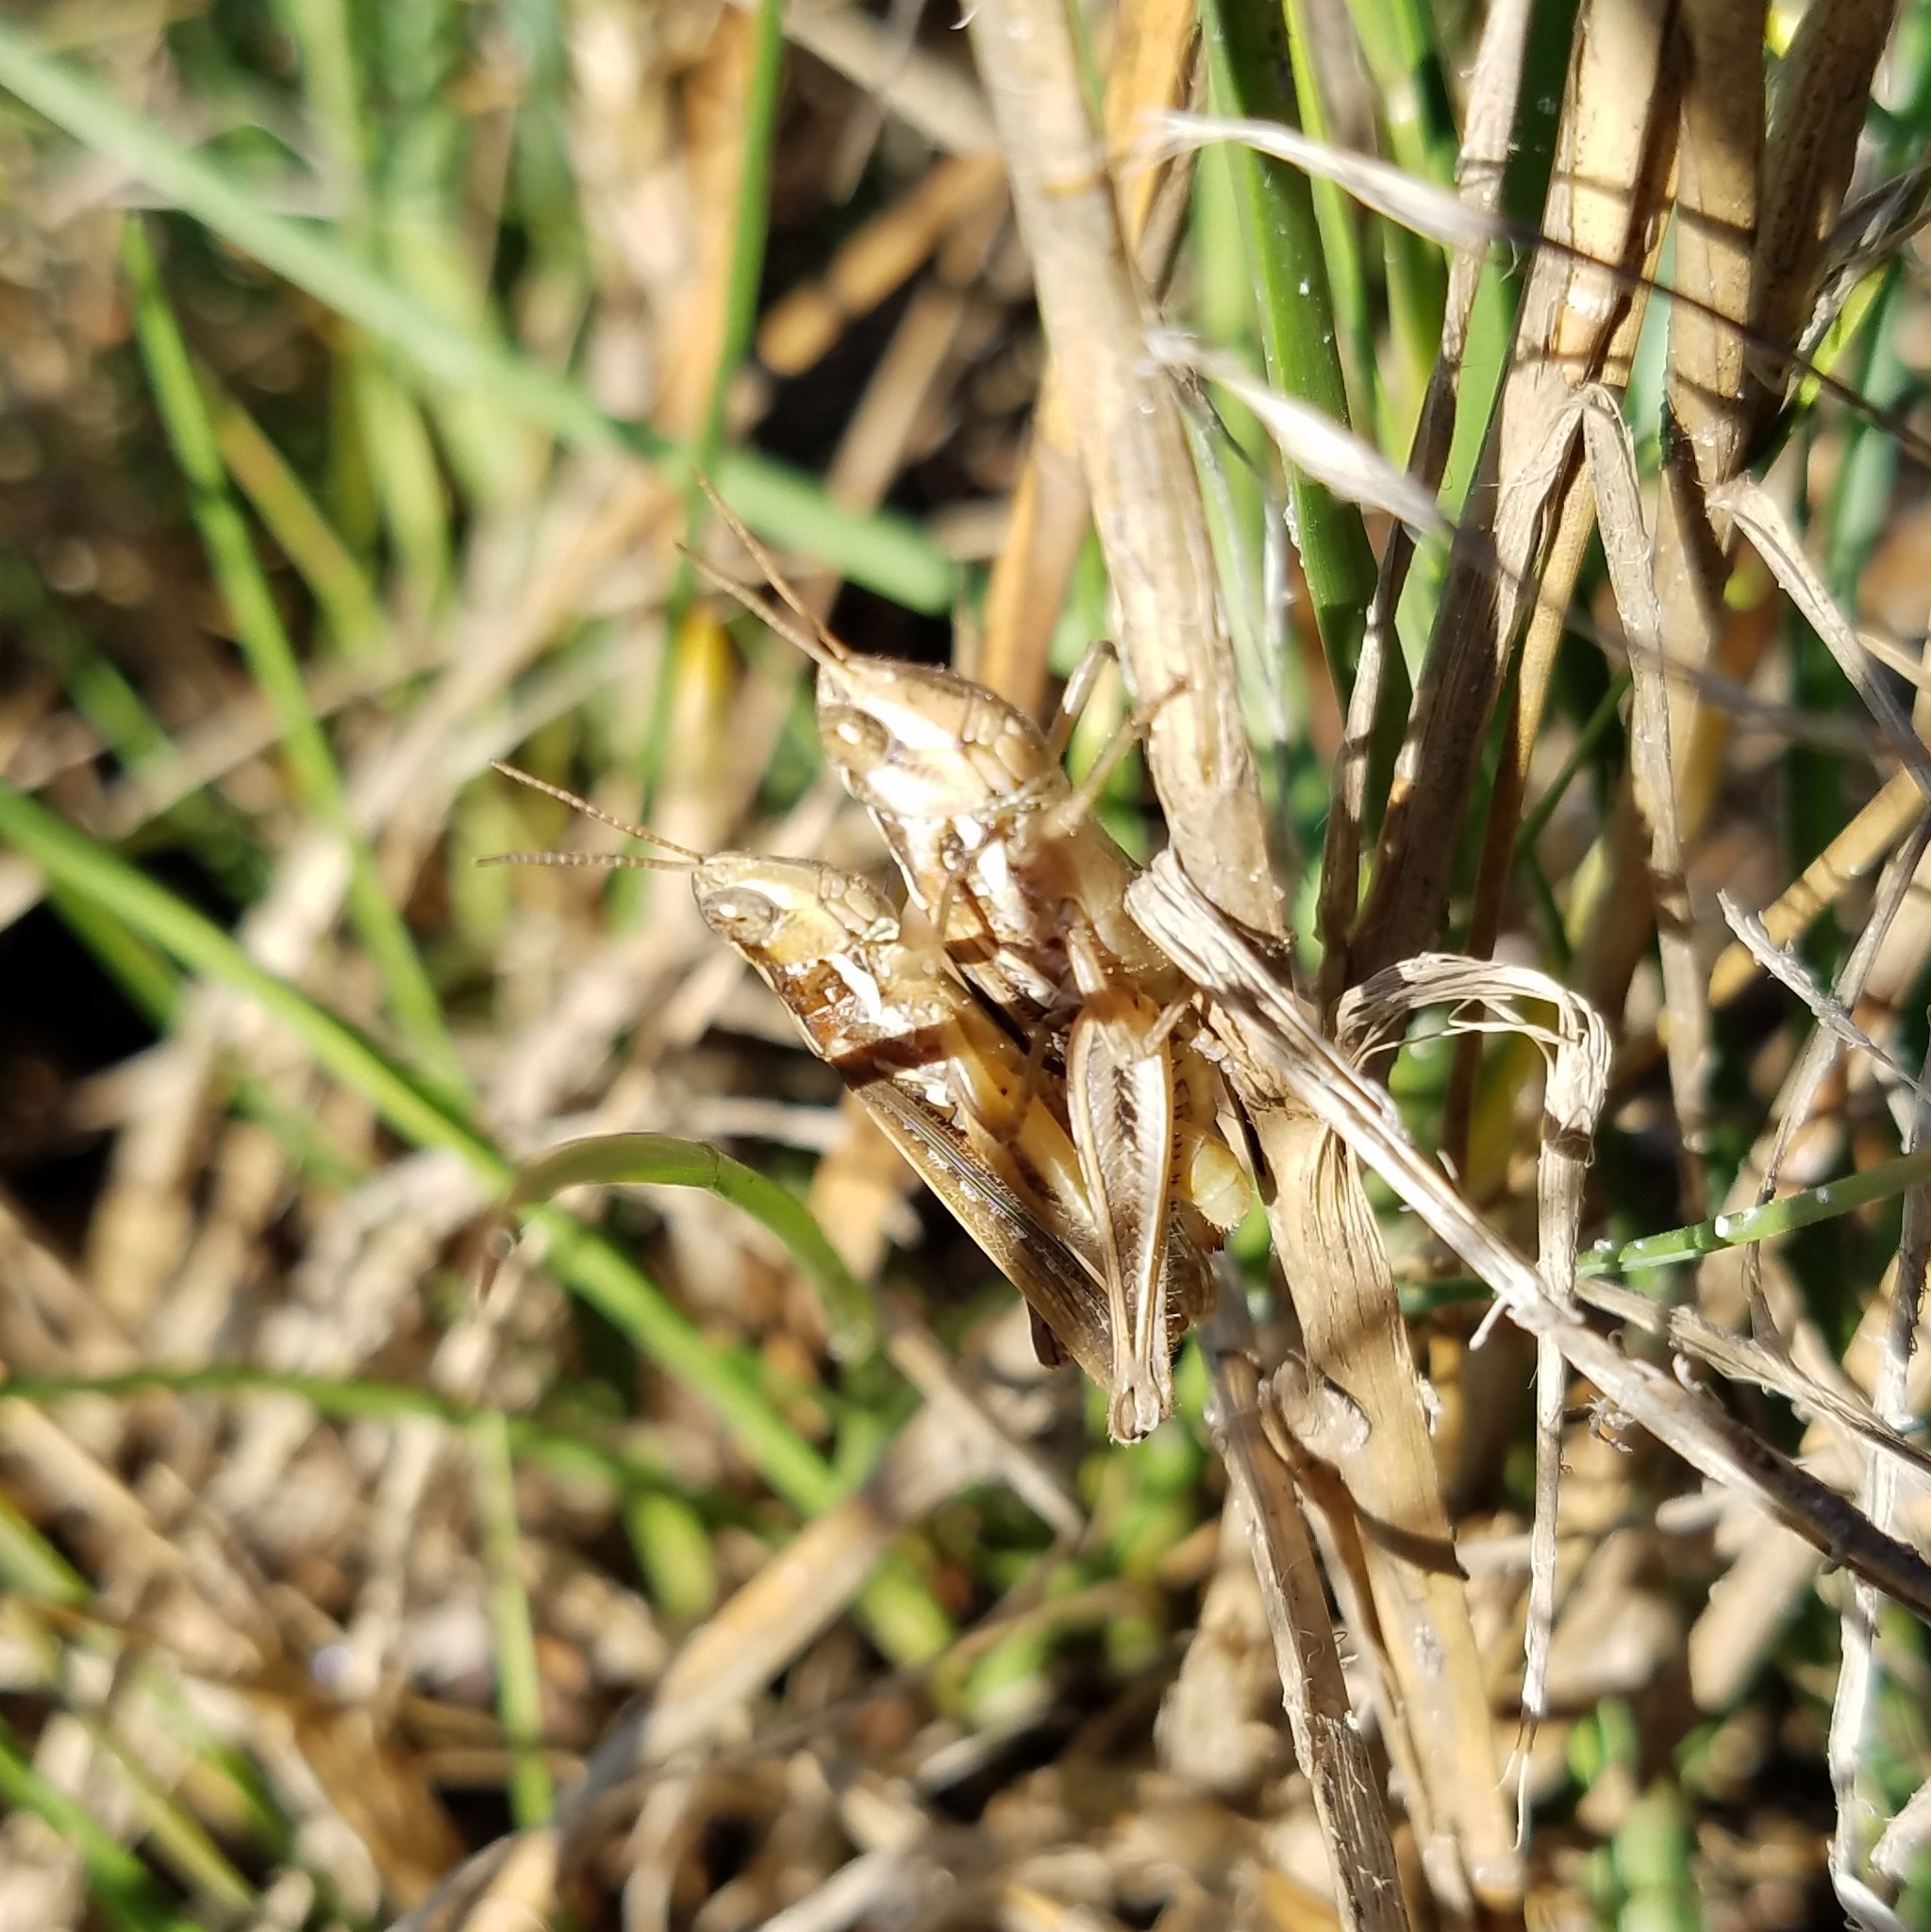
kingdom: Animalia
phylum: Arthropoda
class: Insecta
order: Orthoptera
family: Acrididae
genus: Orphulella
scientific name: Orphulella pelidna
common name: Spotted-wing grasshopper
